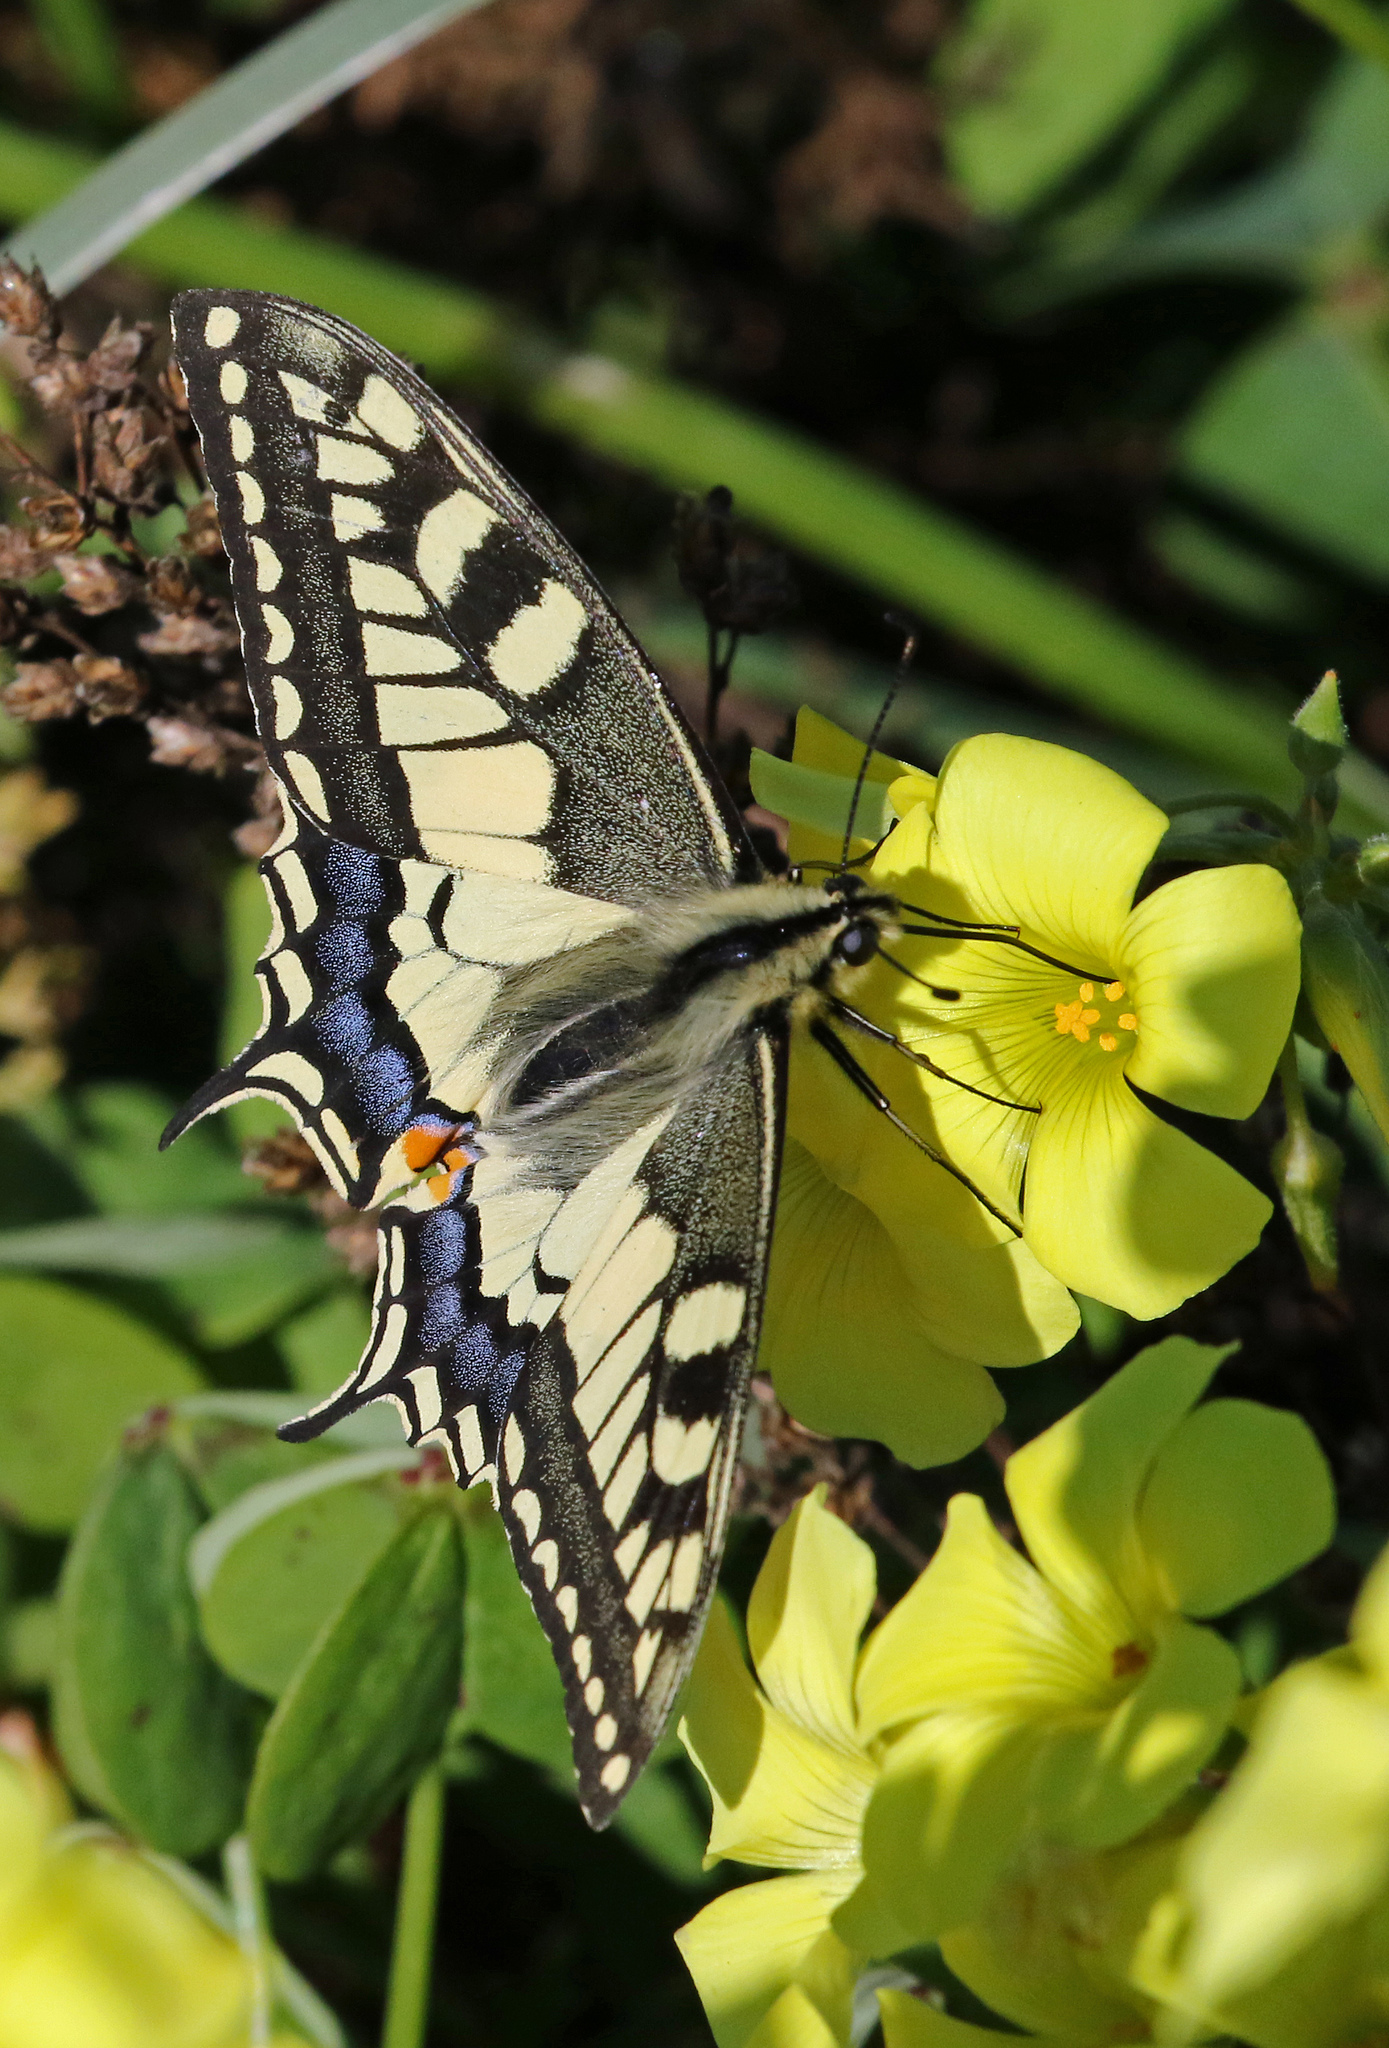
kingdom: Animalia
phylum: Arthropoda
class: Insecta
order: Lepidoptera
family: Papilionidae
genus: Papilio
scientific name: Papilio machaon
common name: Swallowtail
